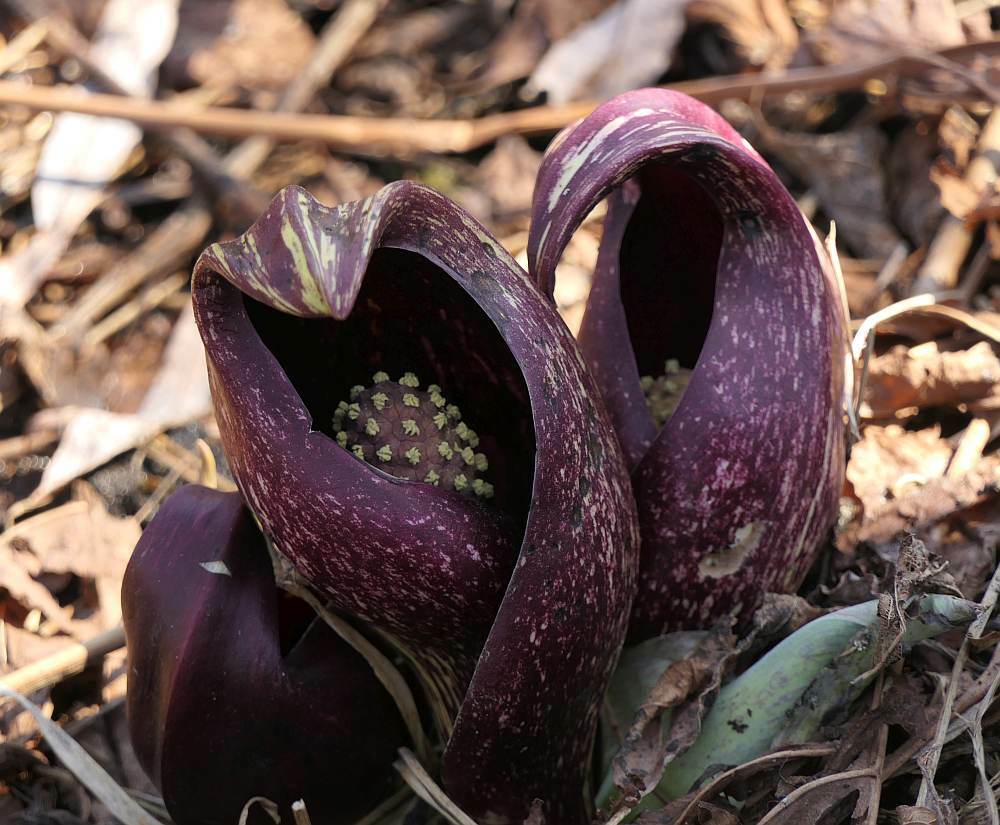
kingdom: Plantae
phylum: Tracheophyta
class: Liliopsida
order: Alismatales
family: Araceae
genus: Symplocarpus
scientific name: Symplocarpus foetidus
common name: Eastern skunk cabbage
